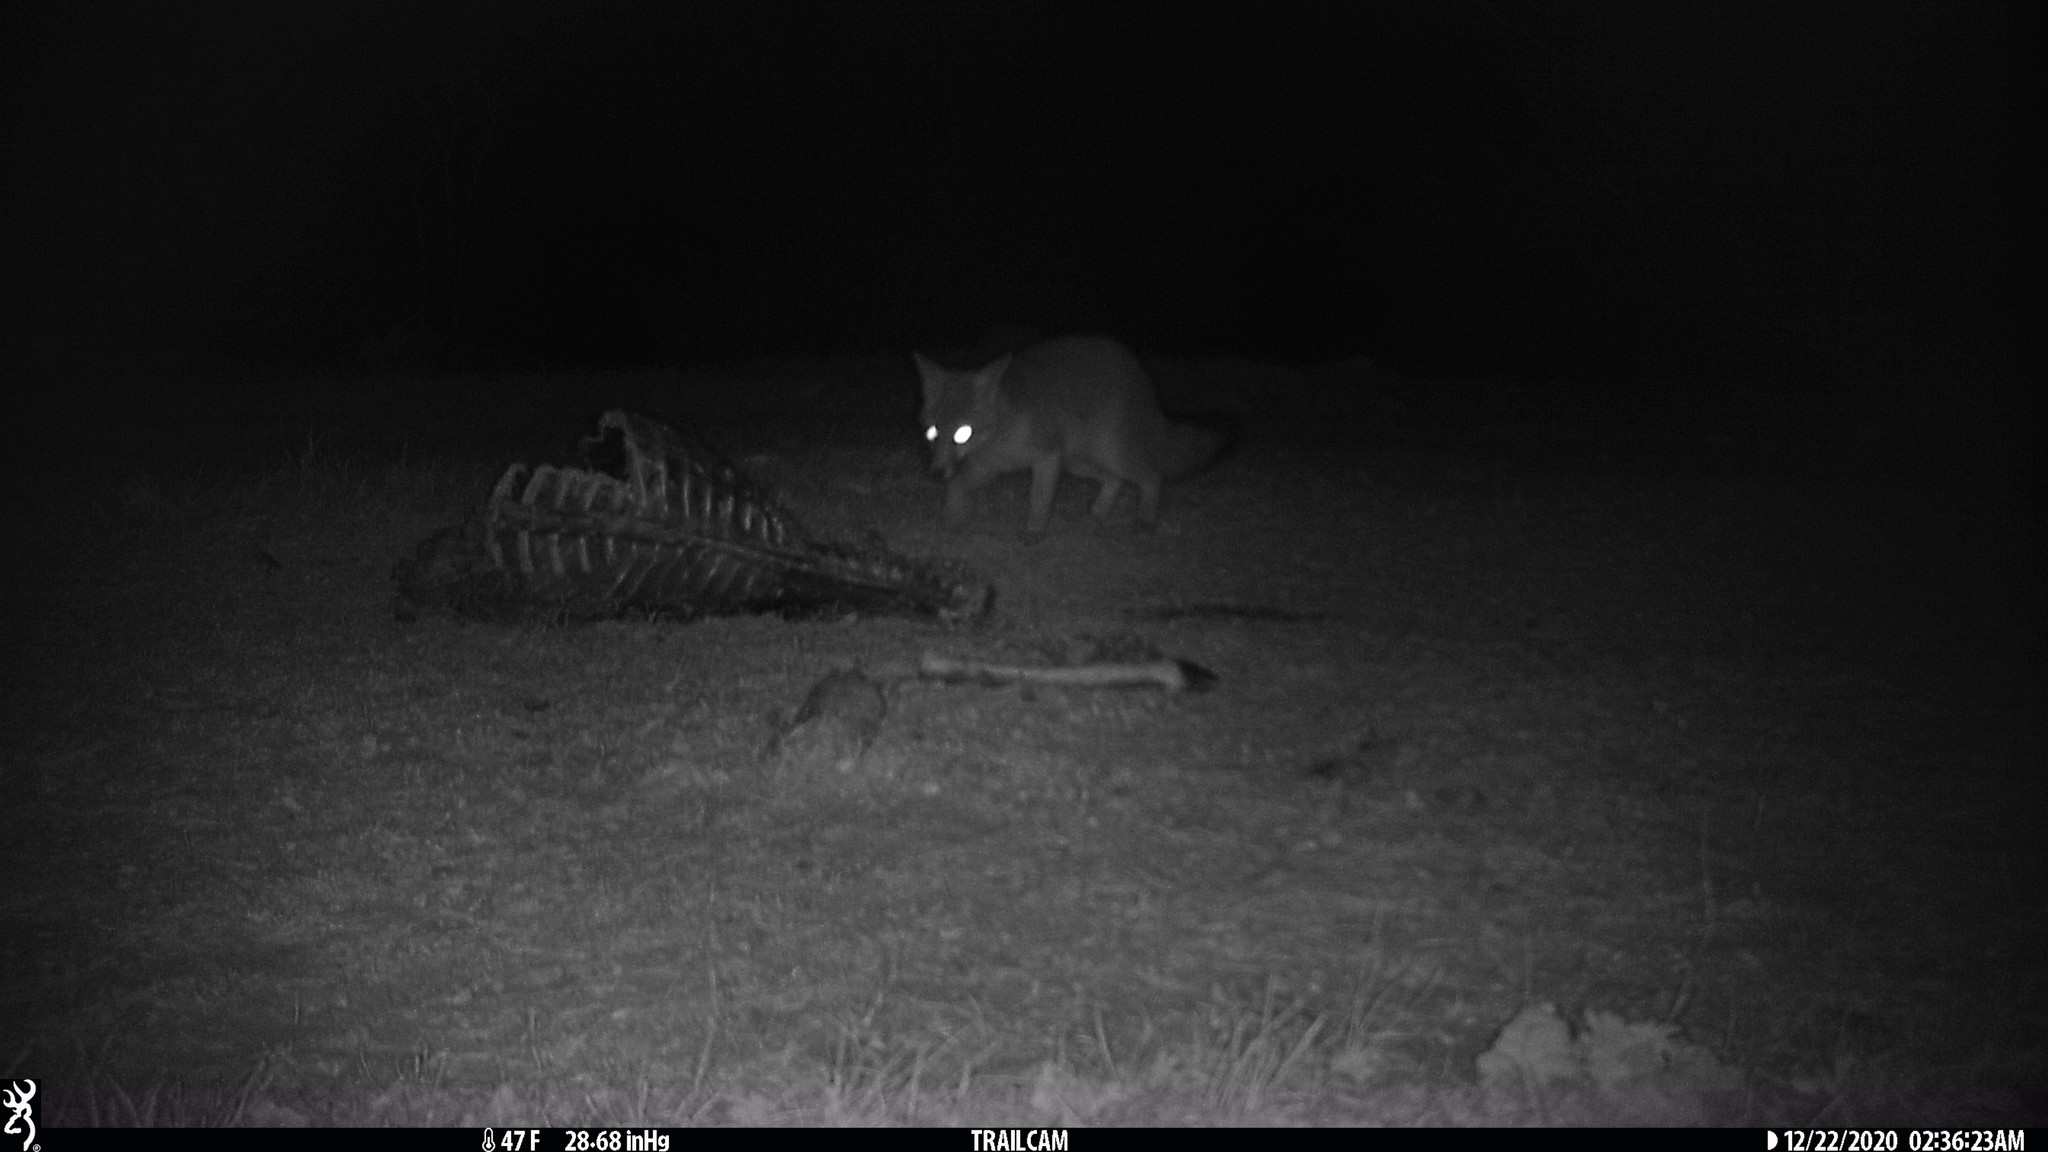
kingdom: Animalia
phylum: Chordata
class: Mammalia
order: Carnivora
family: Canidae
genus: Urocyon
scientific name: Urocyon cinereoargenteus
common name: Gray fox
